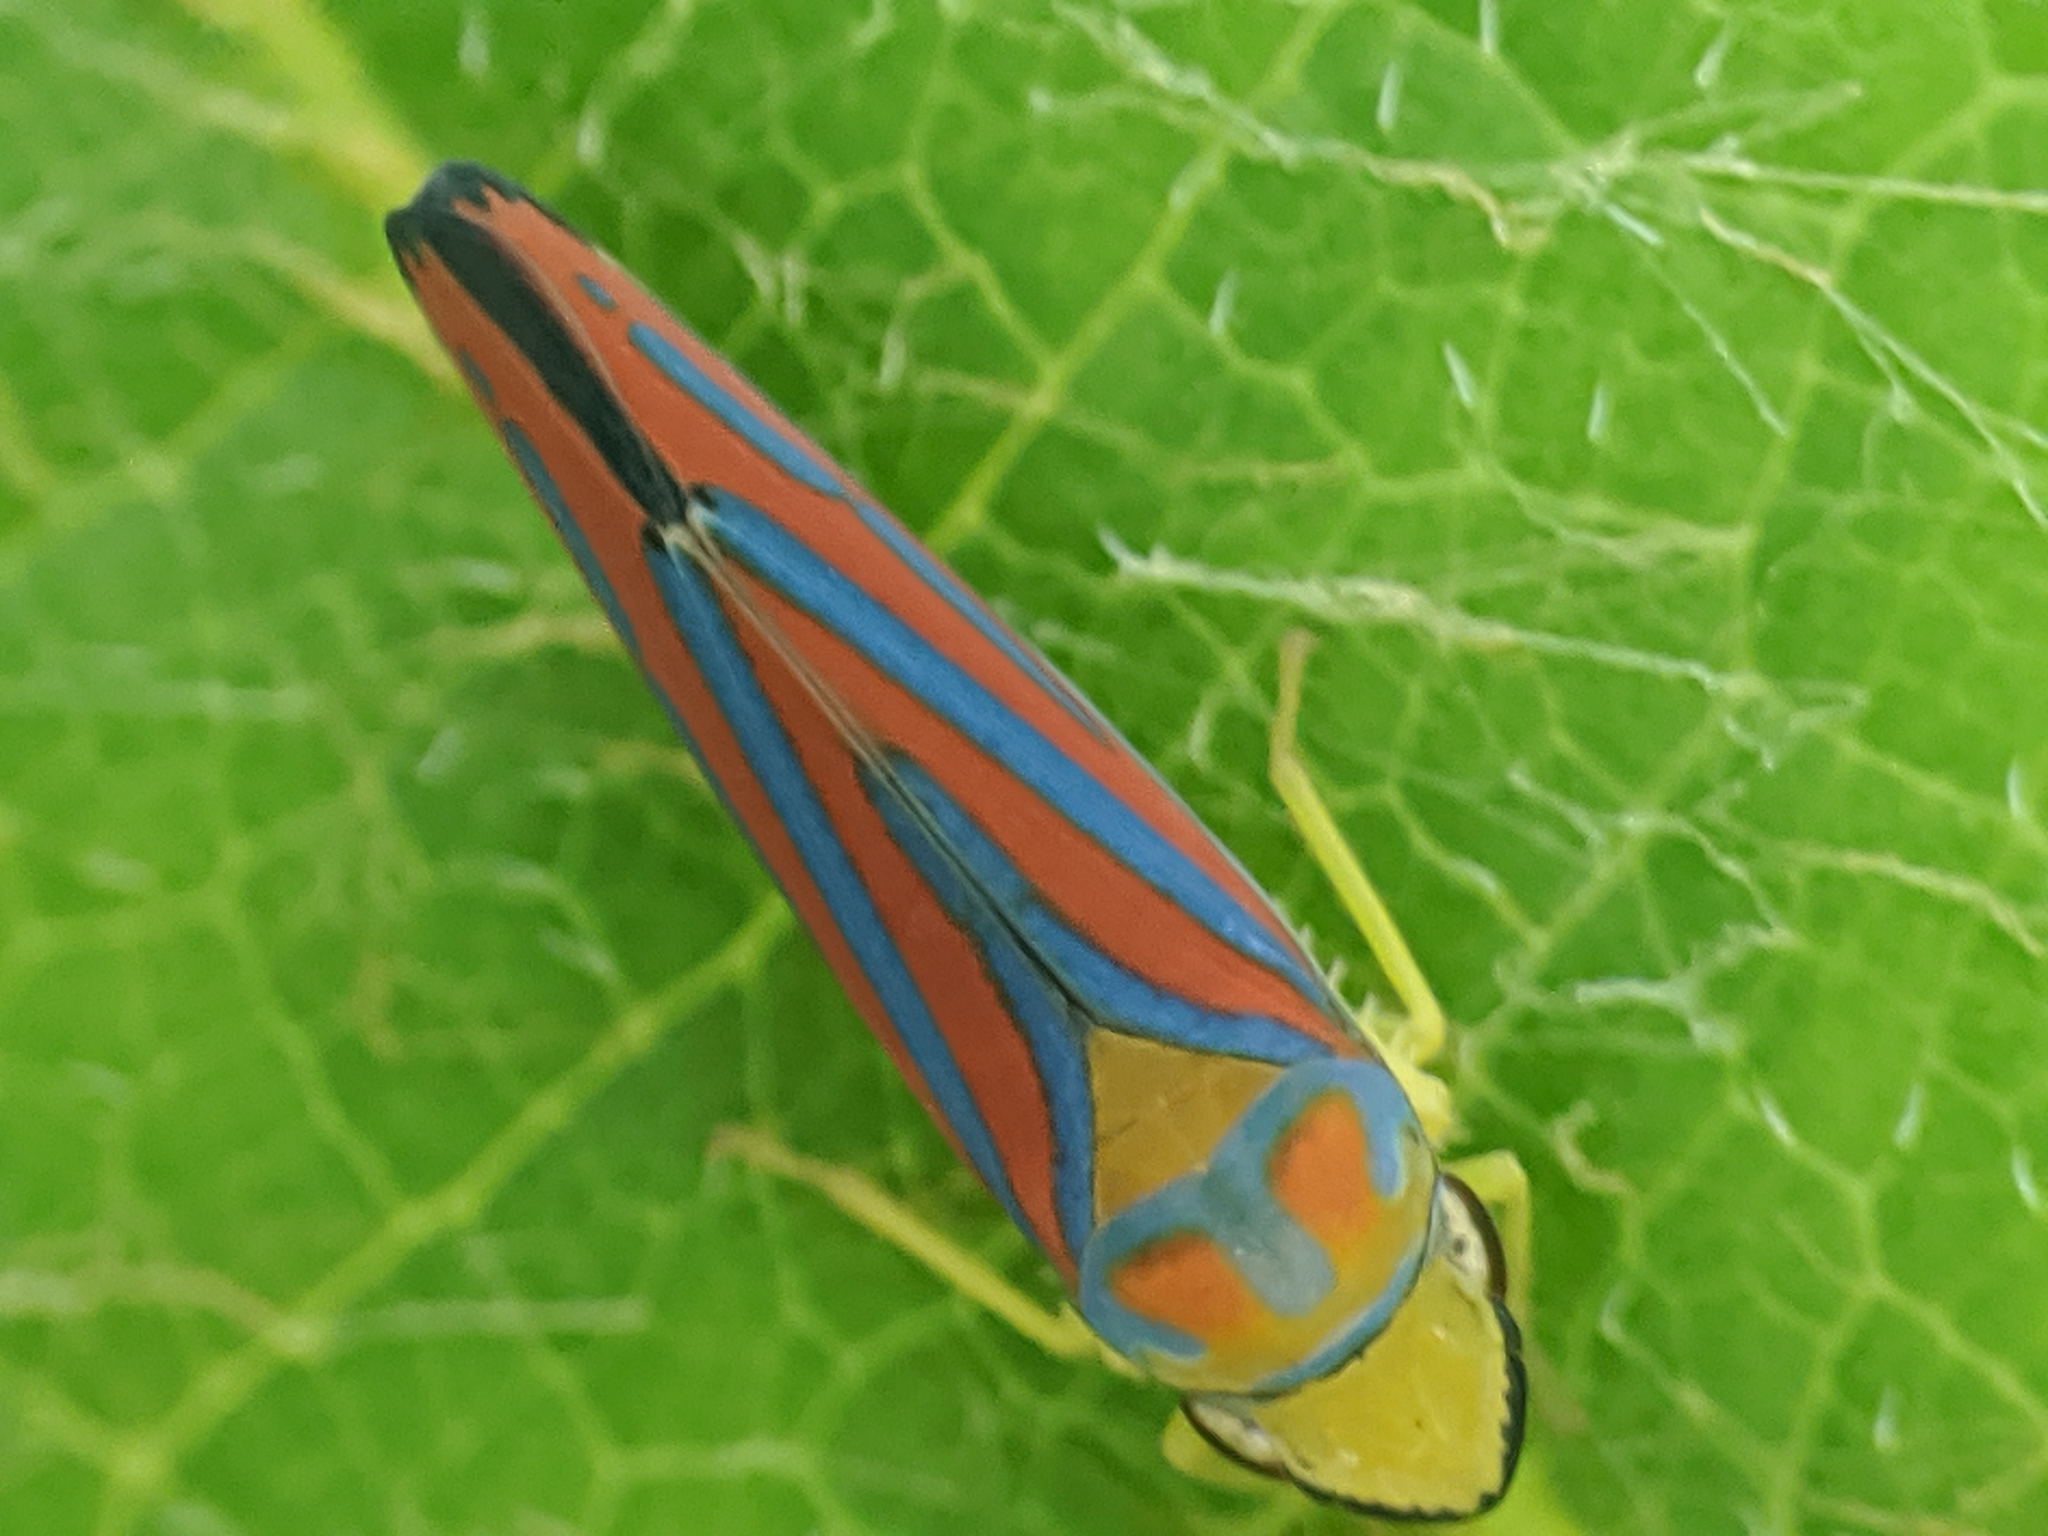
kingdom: Animalia
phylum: Arthropoda
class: Insecta
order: Hemiptera
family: Cicadellidae
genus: Graphocephala
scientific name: Graphocephala coccinea
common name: Candy-striped leafhopper
